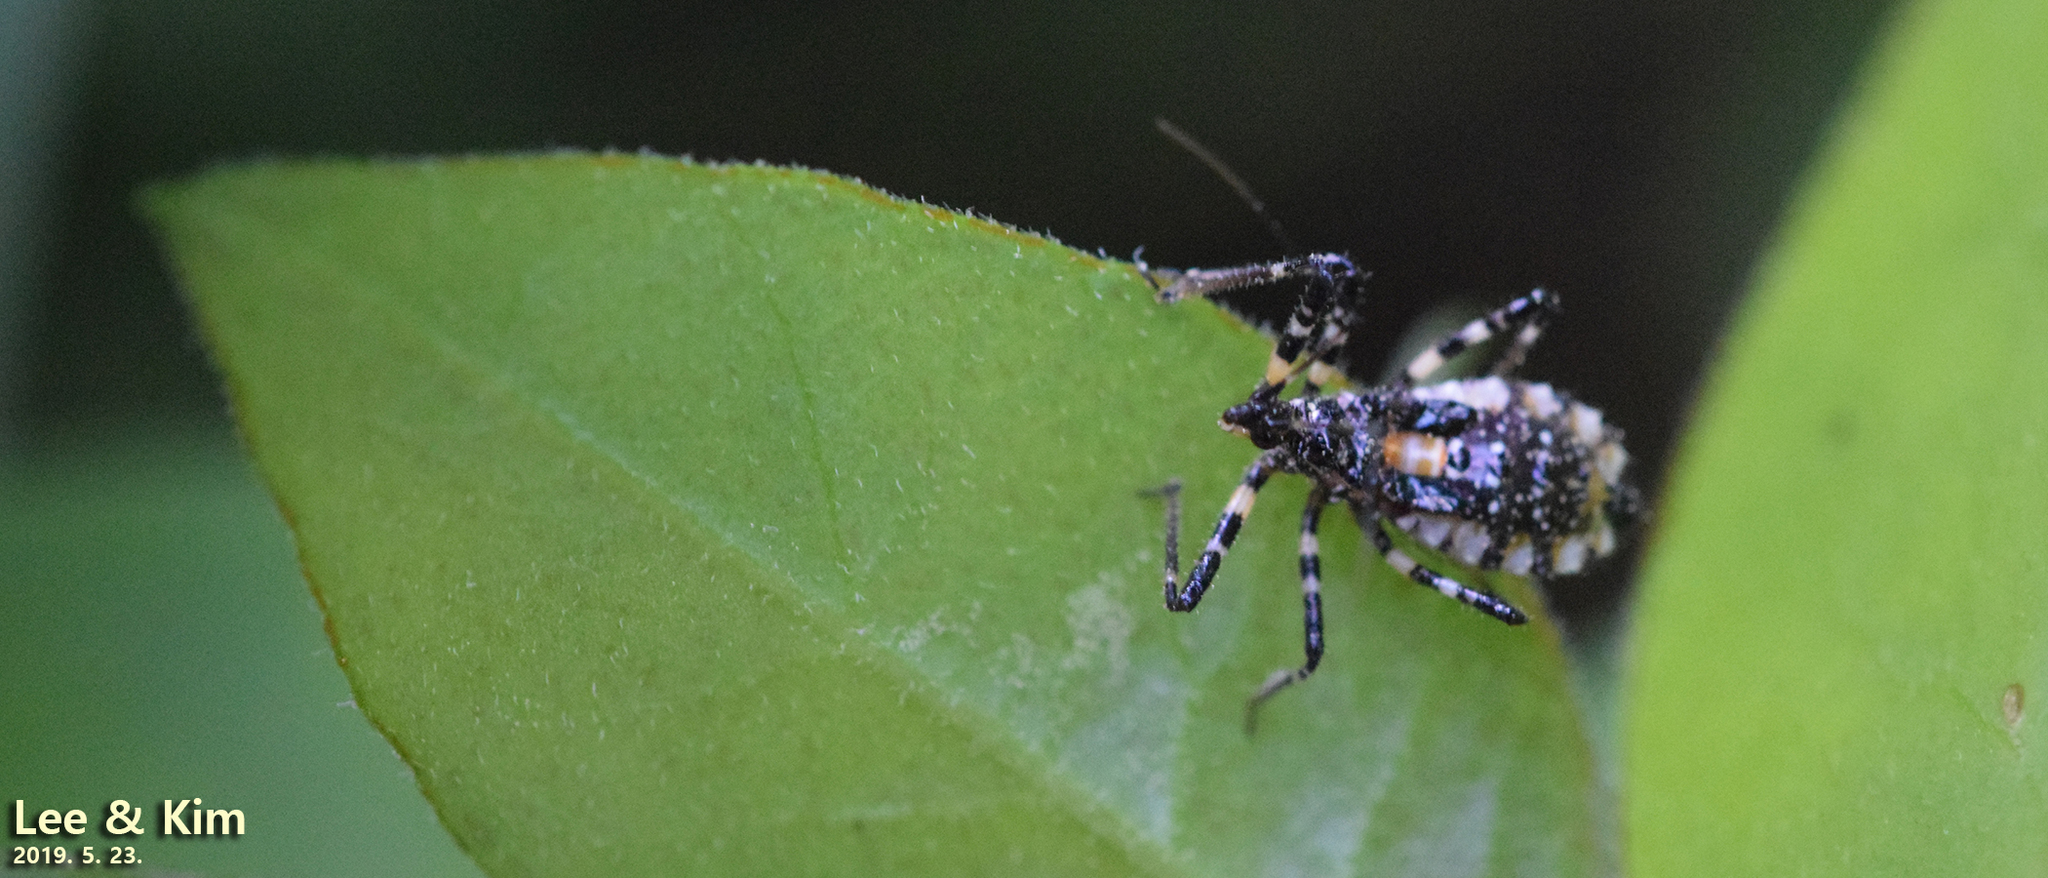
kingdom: Animalia
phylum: Arthropoda
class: Insecta
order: Hemiptera
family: Reduviidae
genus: Sphedanolestes
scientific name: Sphedanolestes impressicollis
